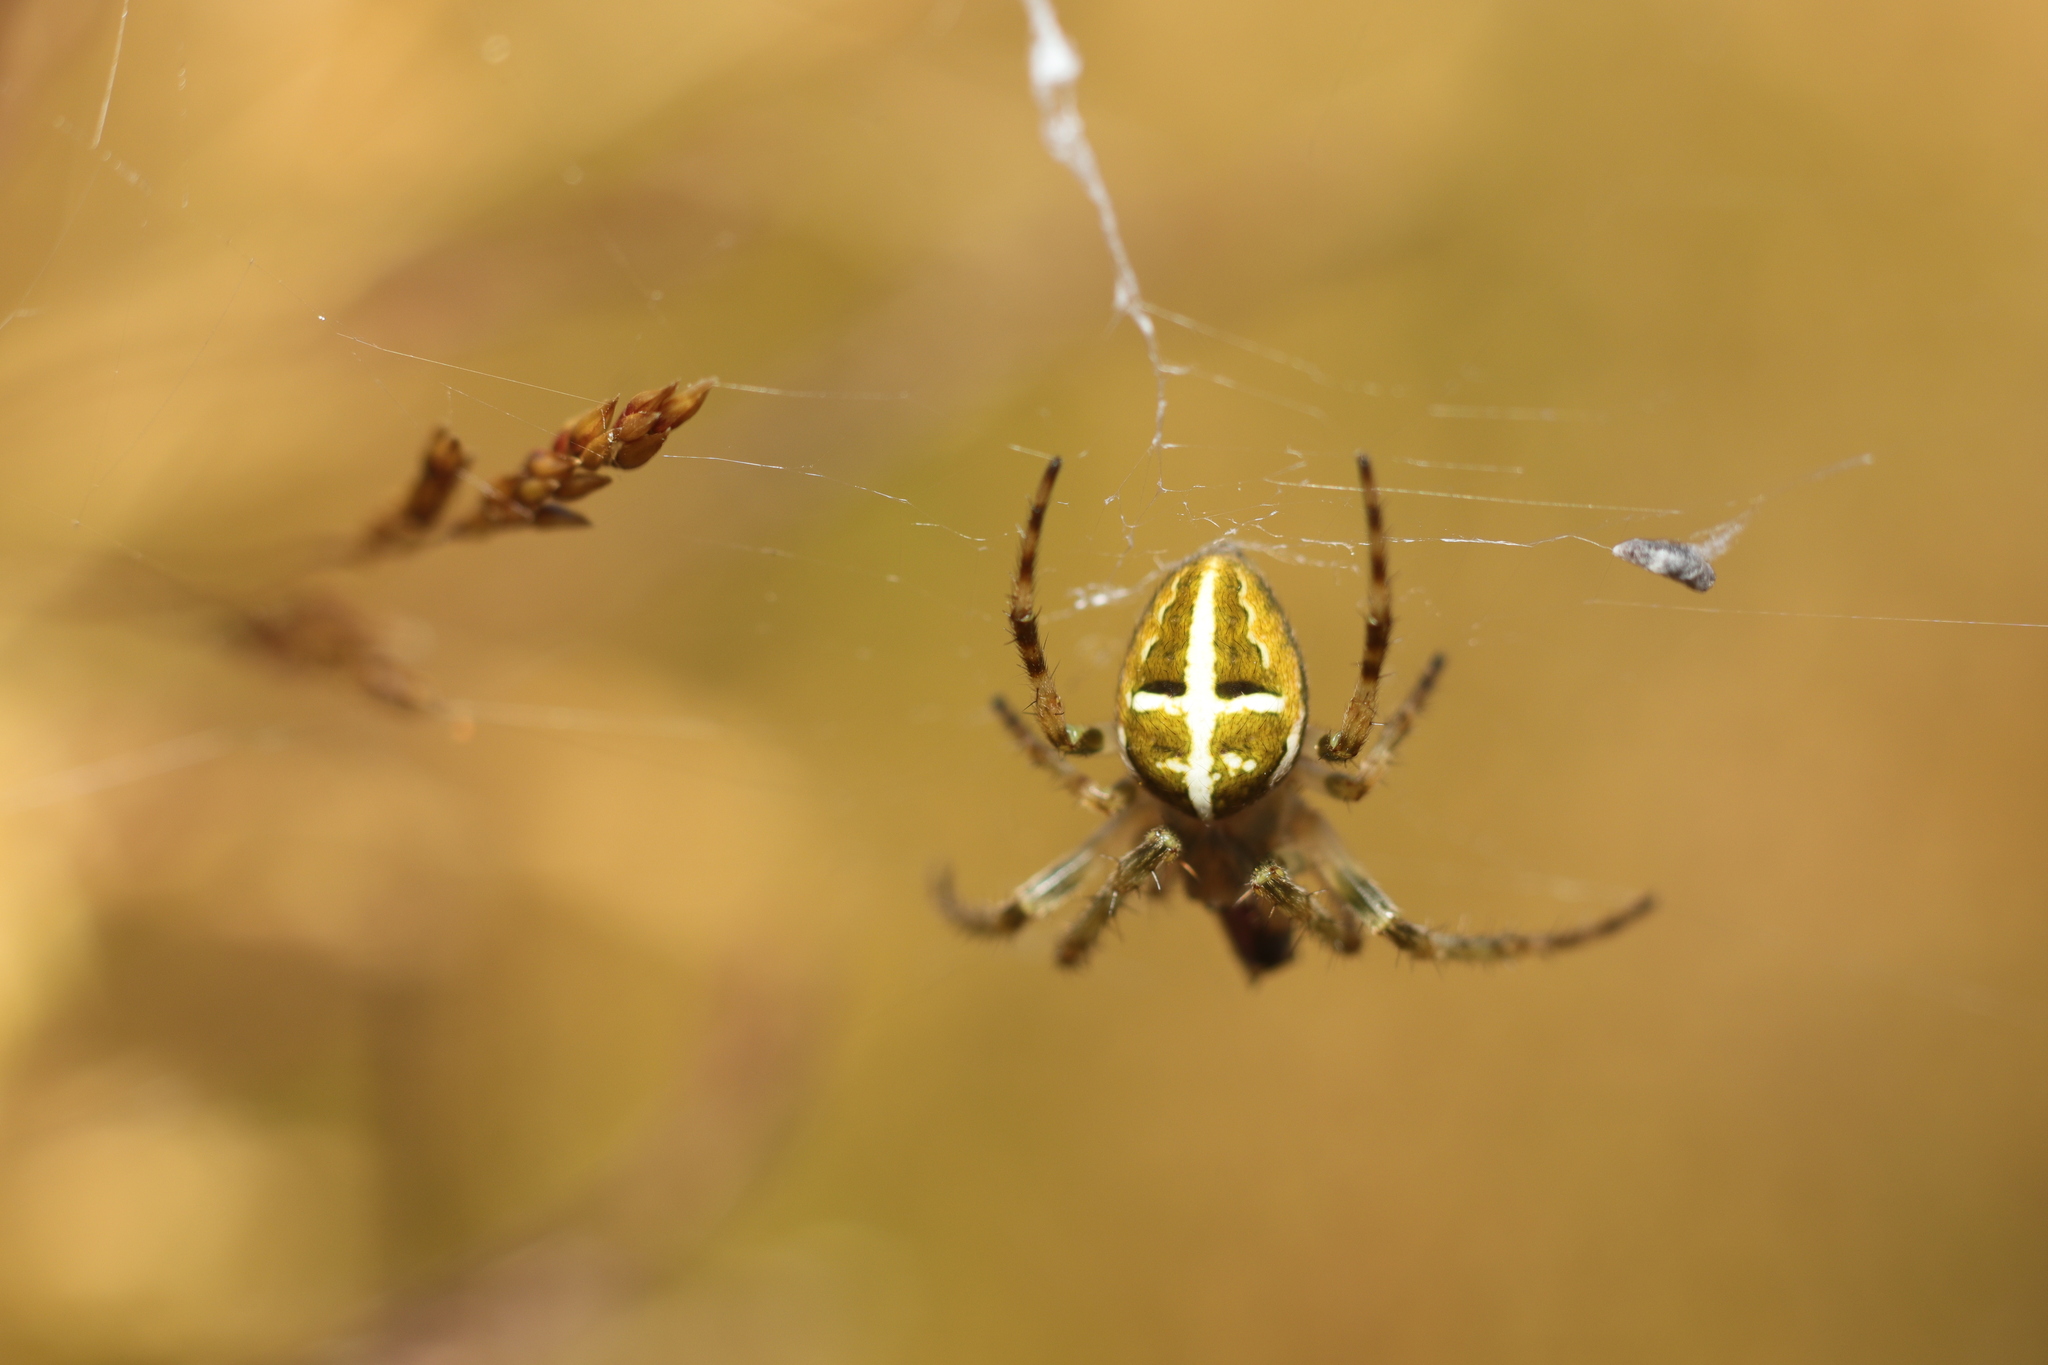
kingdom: Animalia
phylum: Arthropoda
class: Arachnida
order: Araneae
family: Araneidae
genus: Colaranea
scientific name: Colaranea verutum
